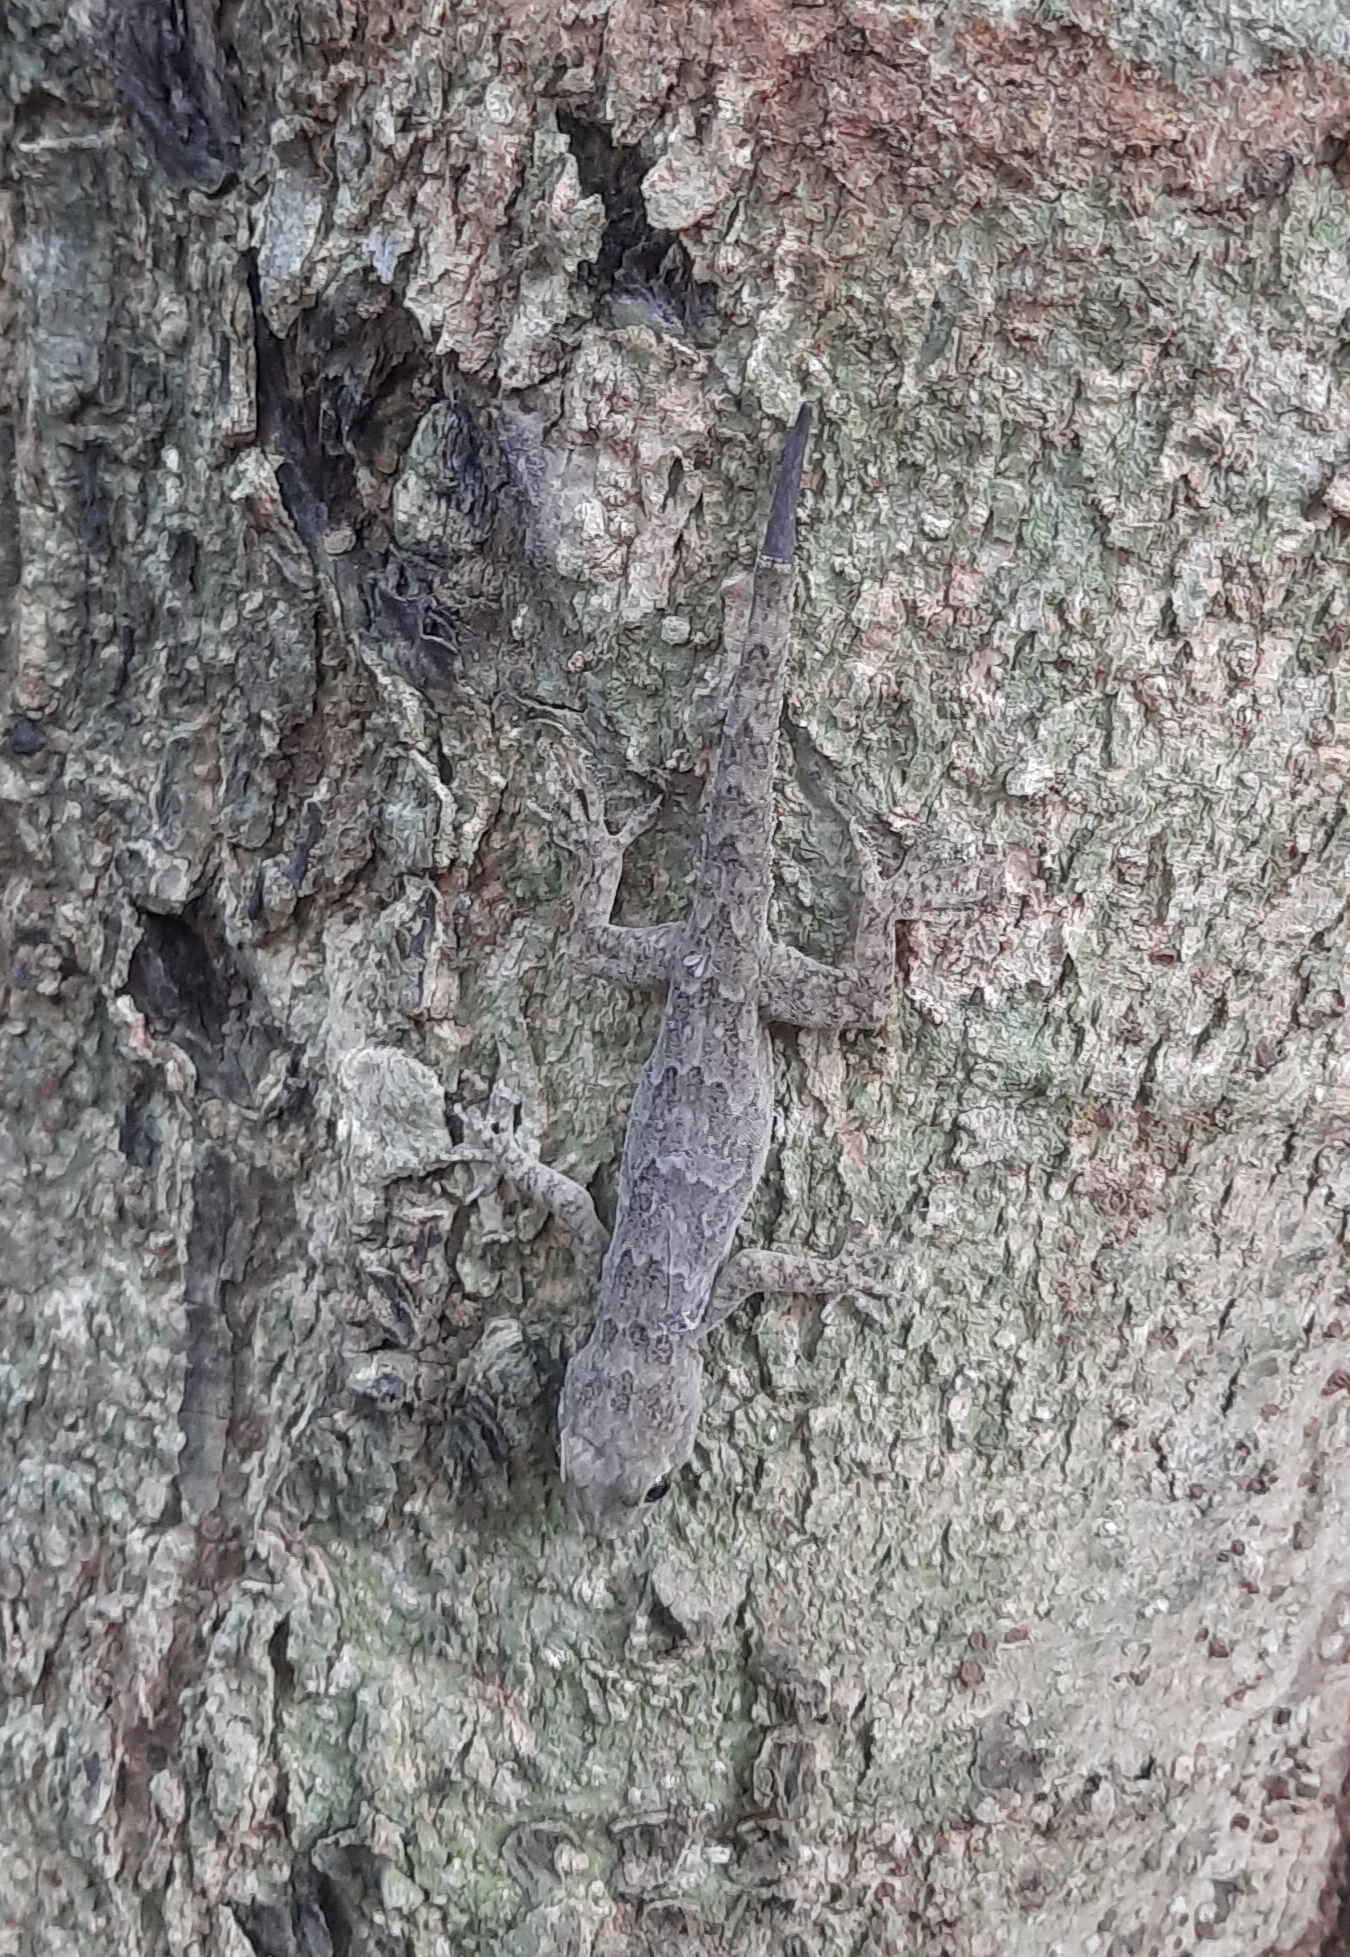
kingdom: Animalia
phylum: Chordata
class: Squamata
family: Gekkonidae
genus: Hemidactylus
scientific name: Hemidactylus leschenaultii
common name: Leschenault's leaf-toed gecko
